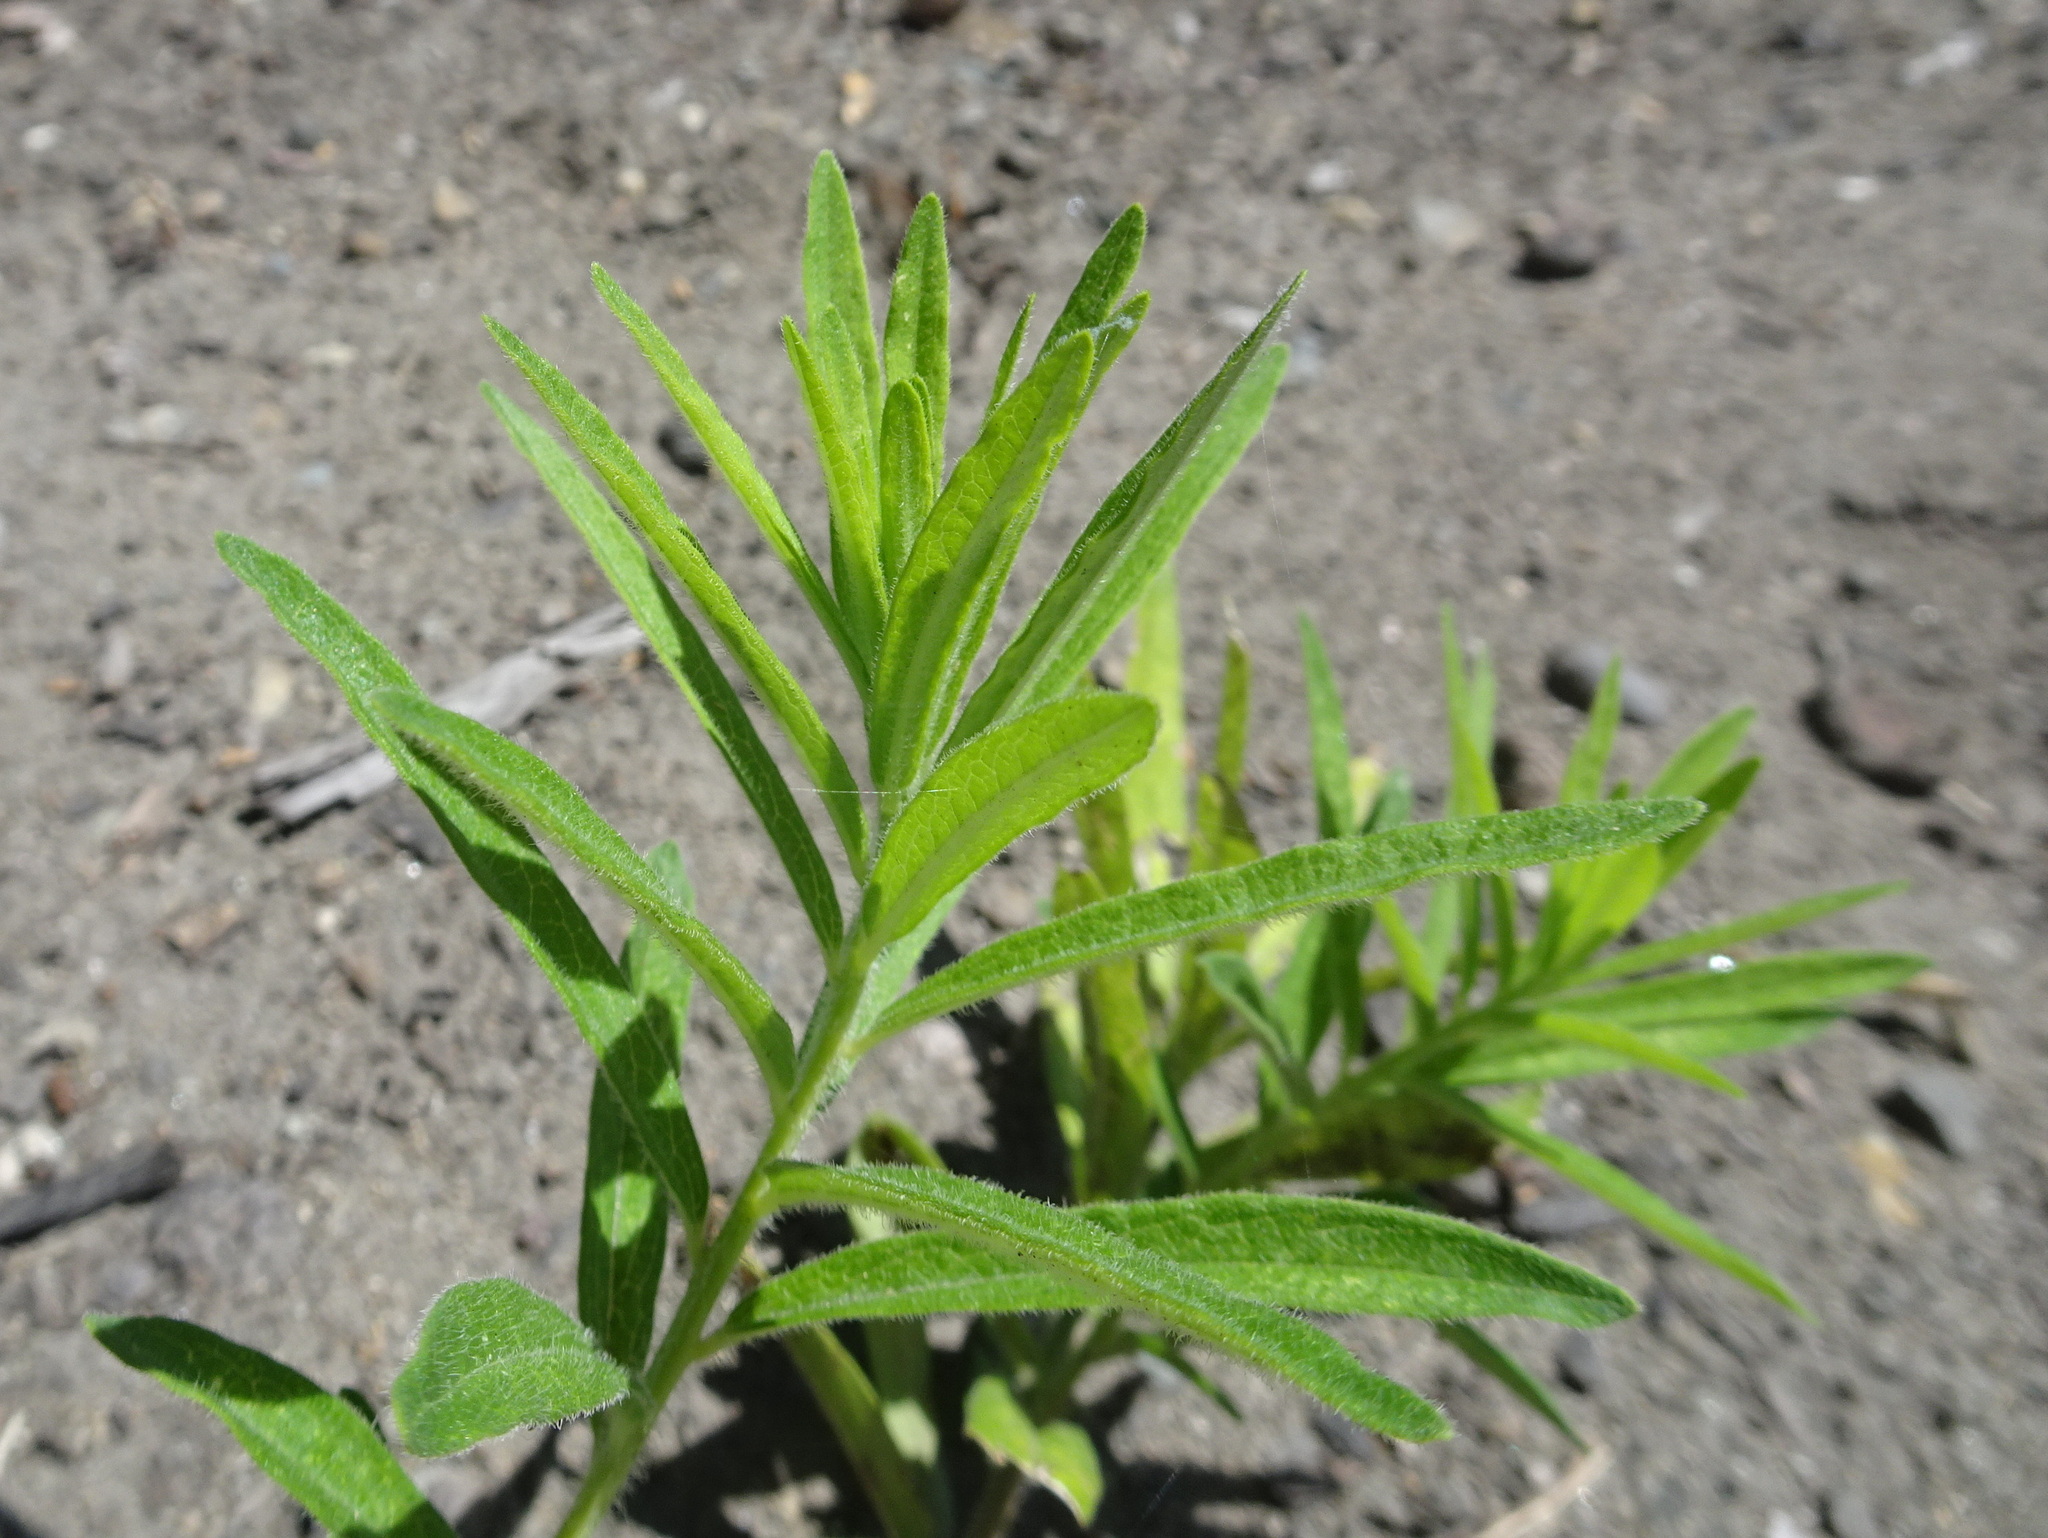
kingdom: Plantae
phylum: Tracheophyta
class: Magnoliopsida
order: Gentianales
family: Apocynaceae
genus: Asclepias
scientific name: Asclepias tuberosa
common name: Butterfly milkweed
